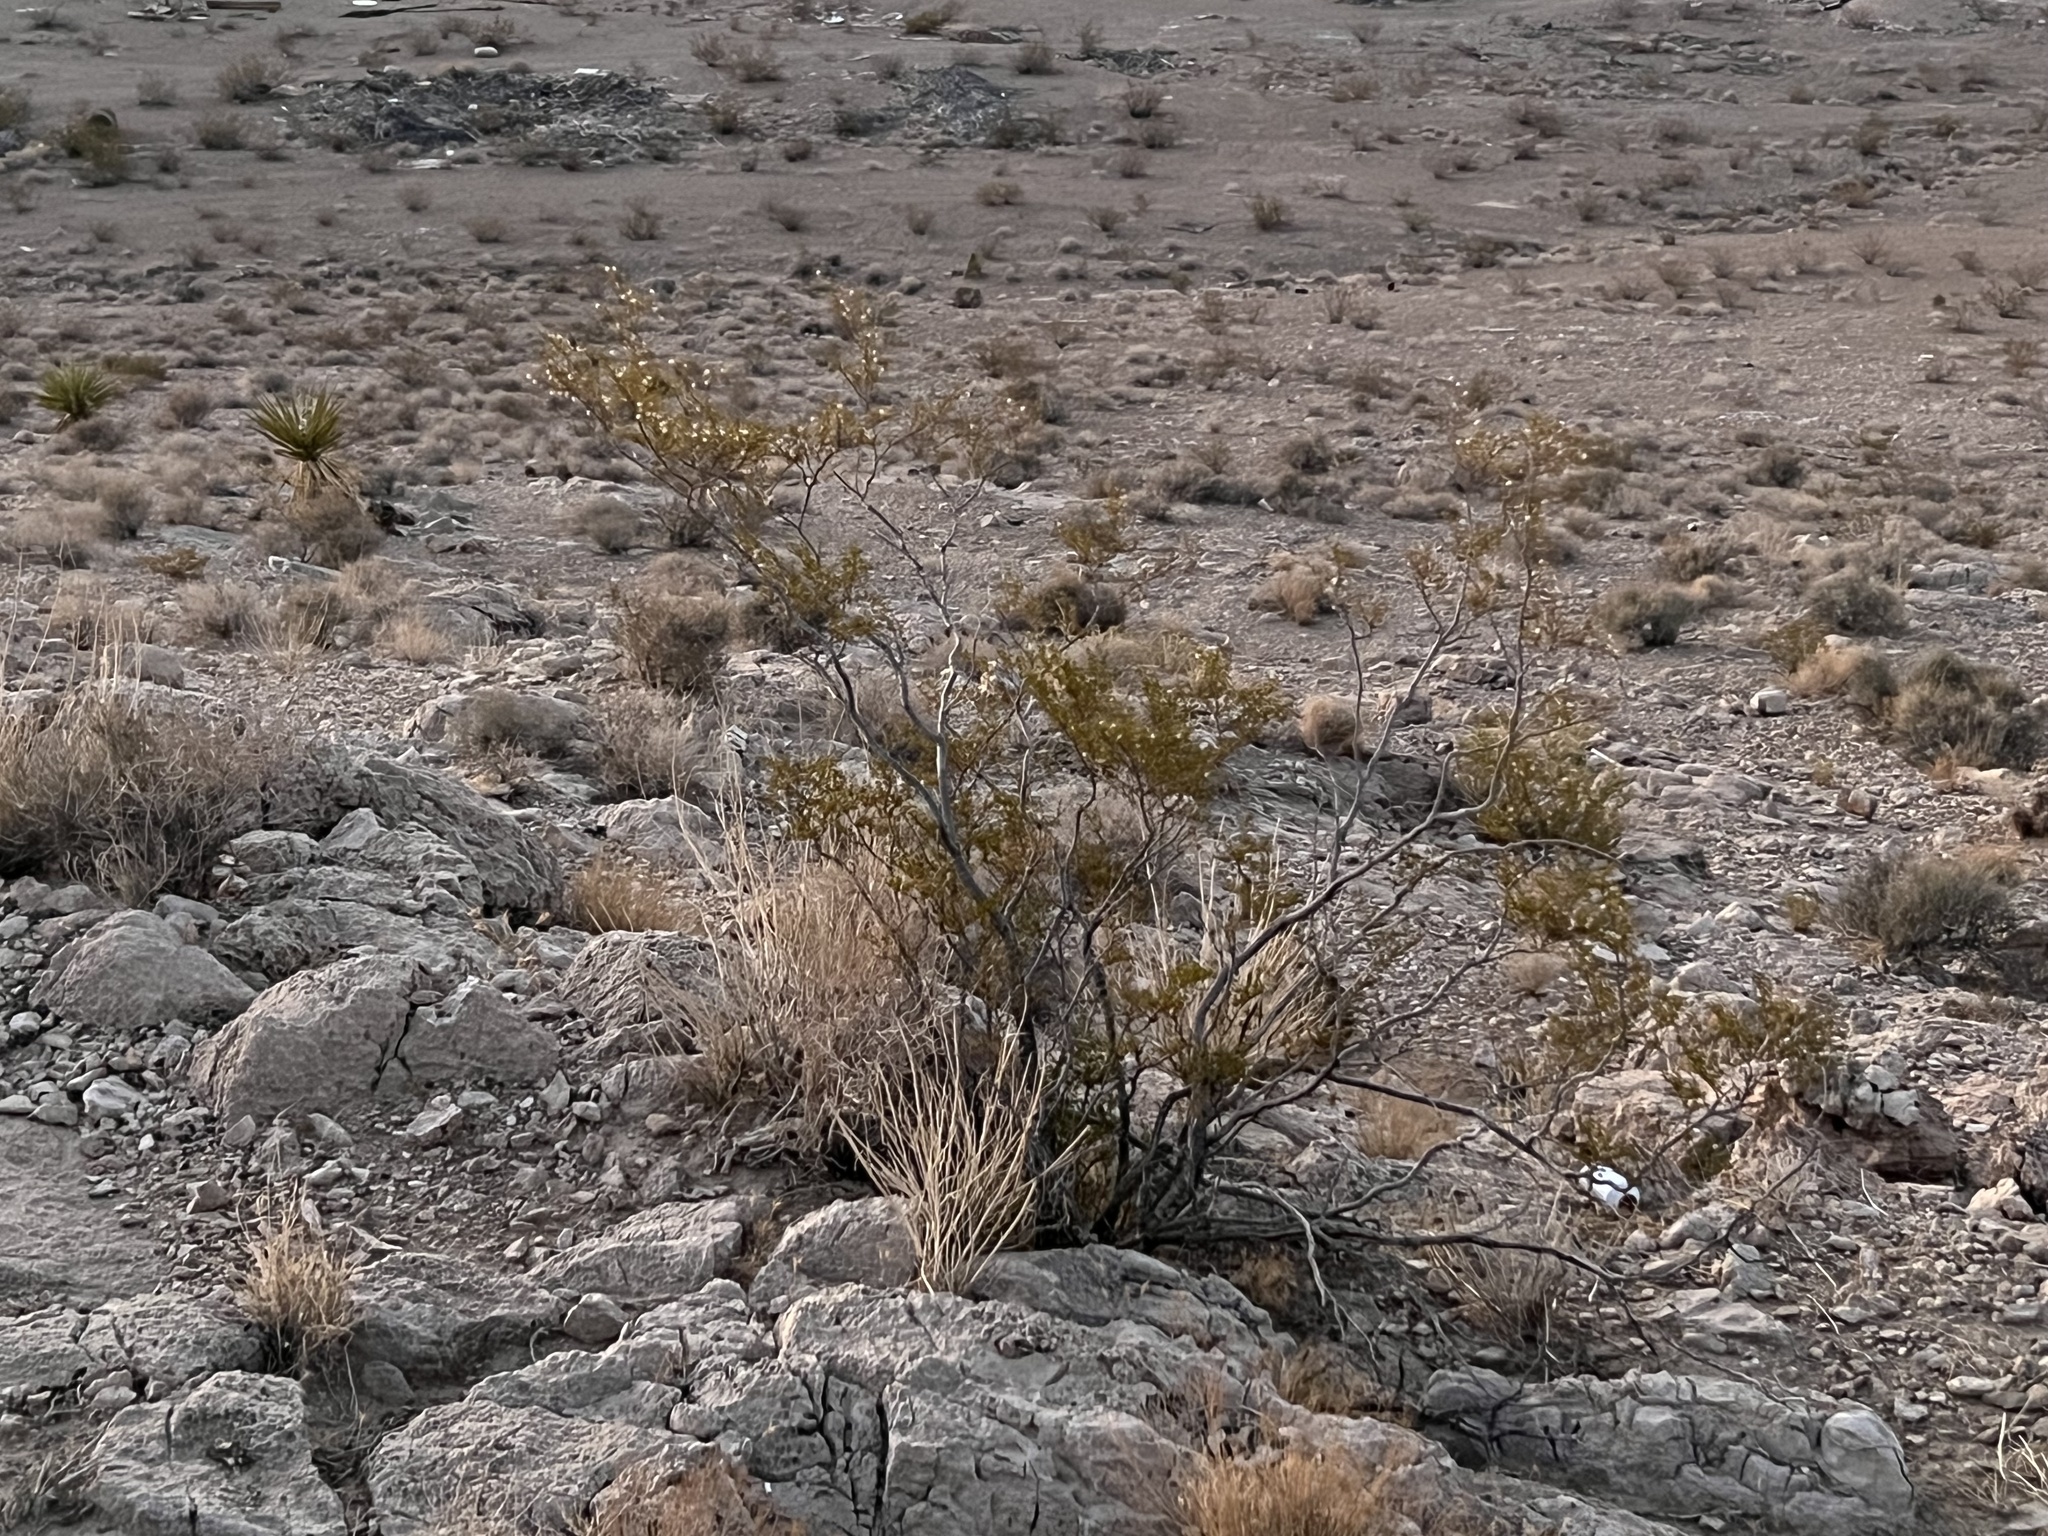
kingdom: Plantae
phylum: Tracheophyta
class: Magnoliopsida
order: Zygophyllales
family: Zygophyllaceae
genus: Larrea
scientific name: Larrea tridentata
